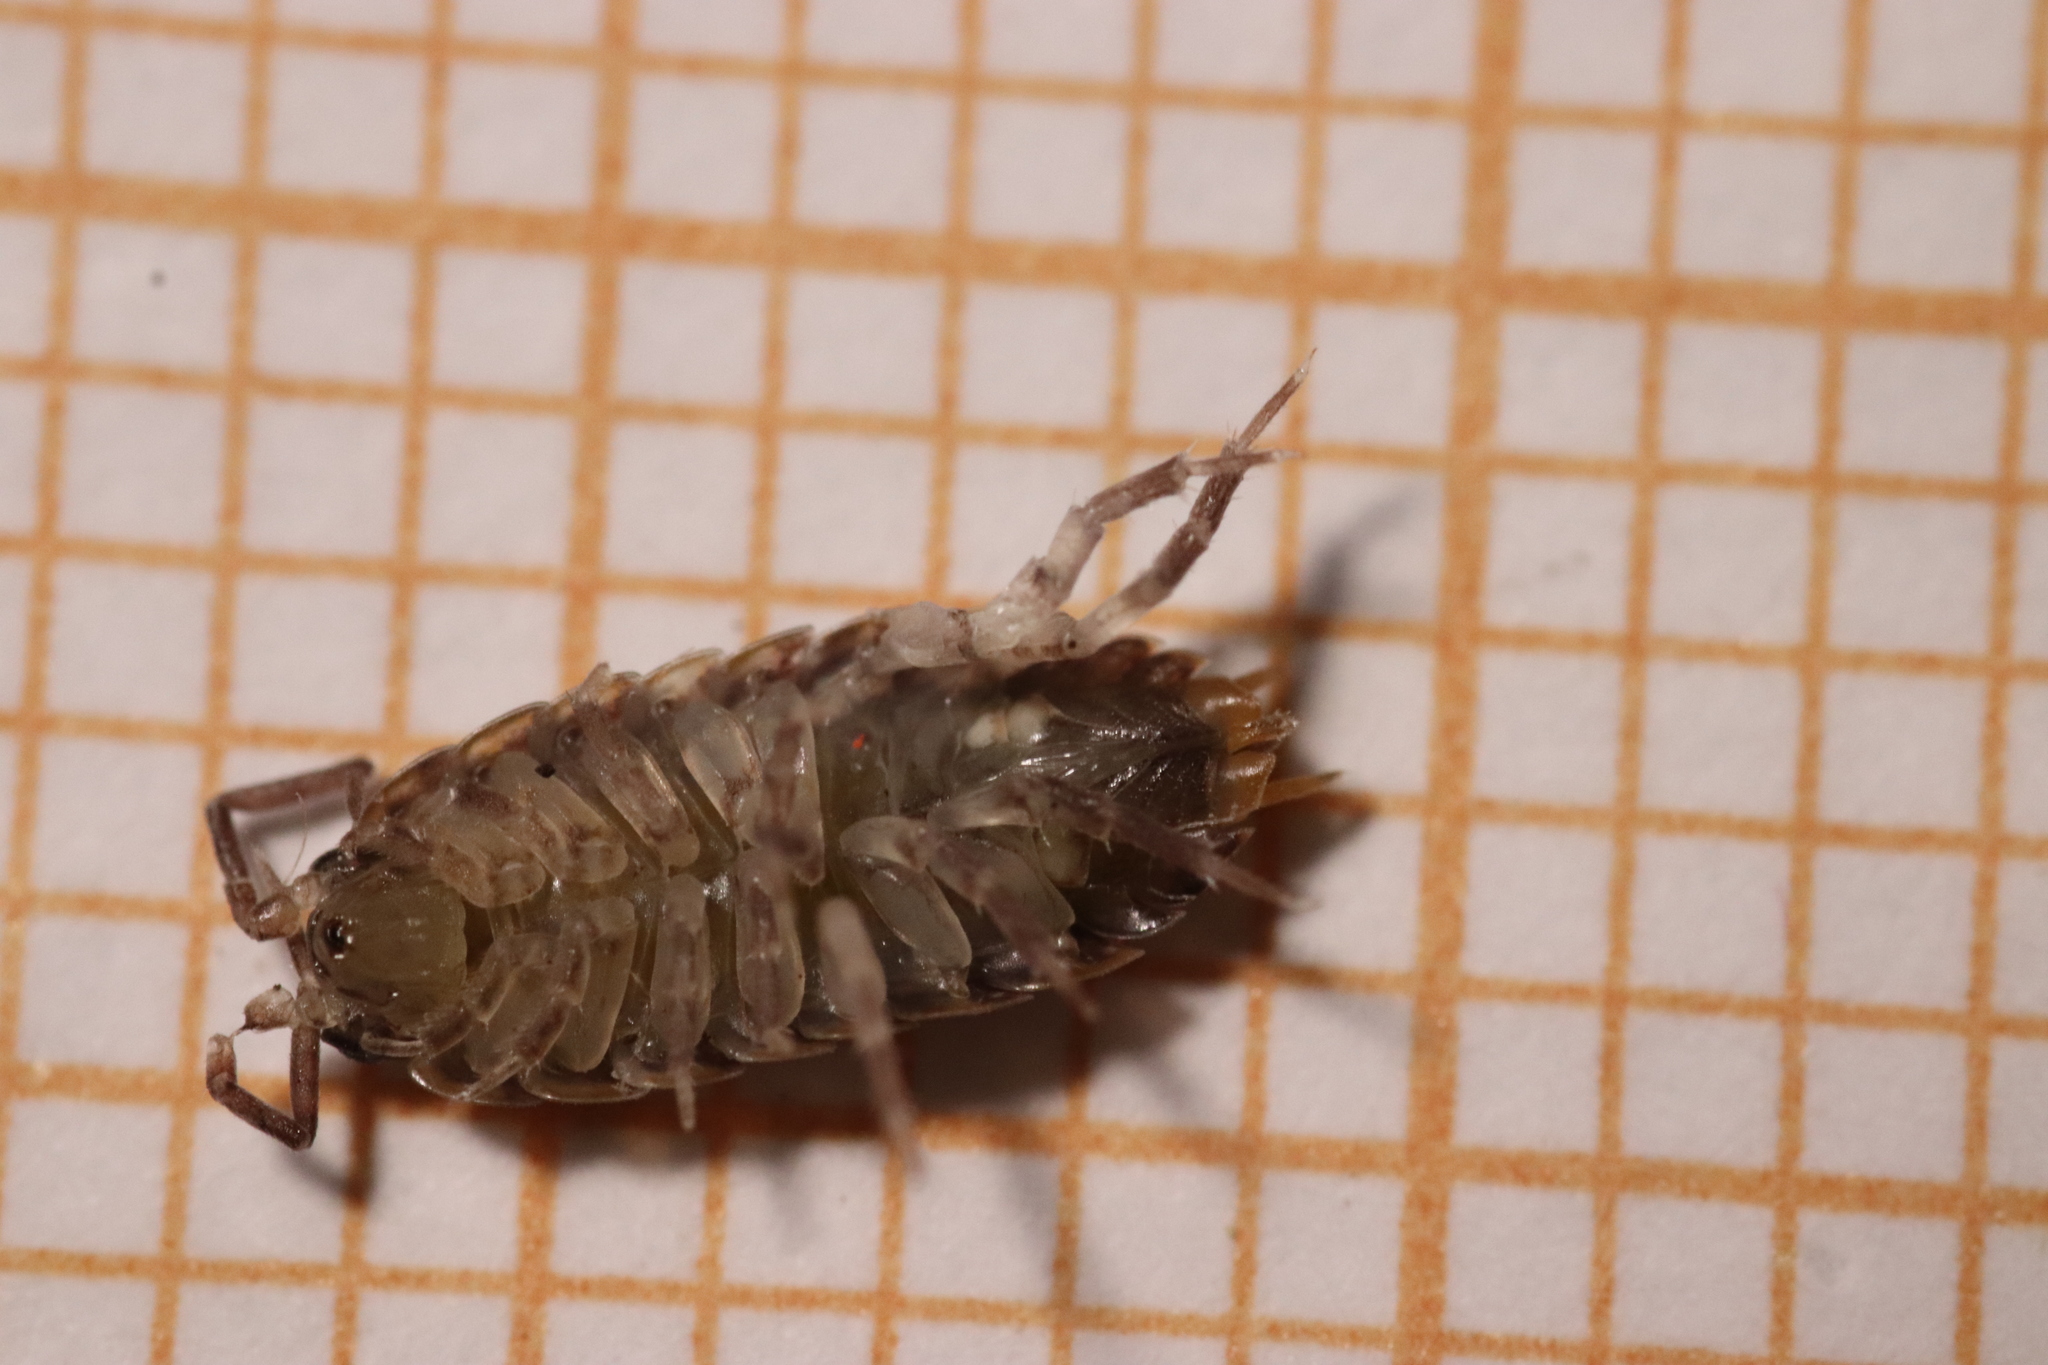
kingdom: Animalia
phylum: Arthropoda
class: Malacostraca
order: Isopoda
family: Porcellionidae
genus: Porcellio
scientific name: Porcellio gallicus
